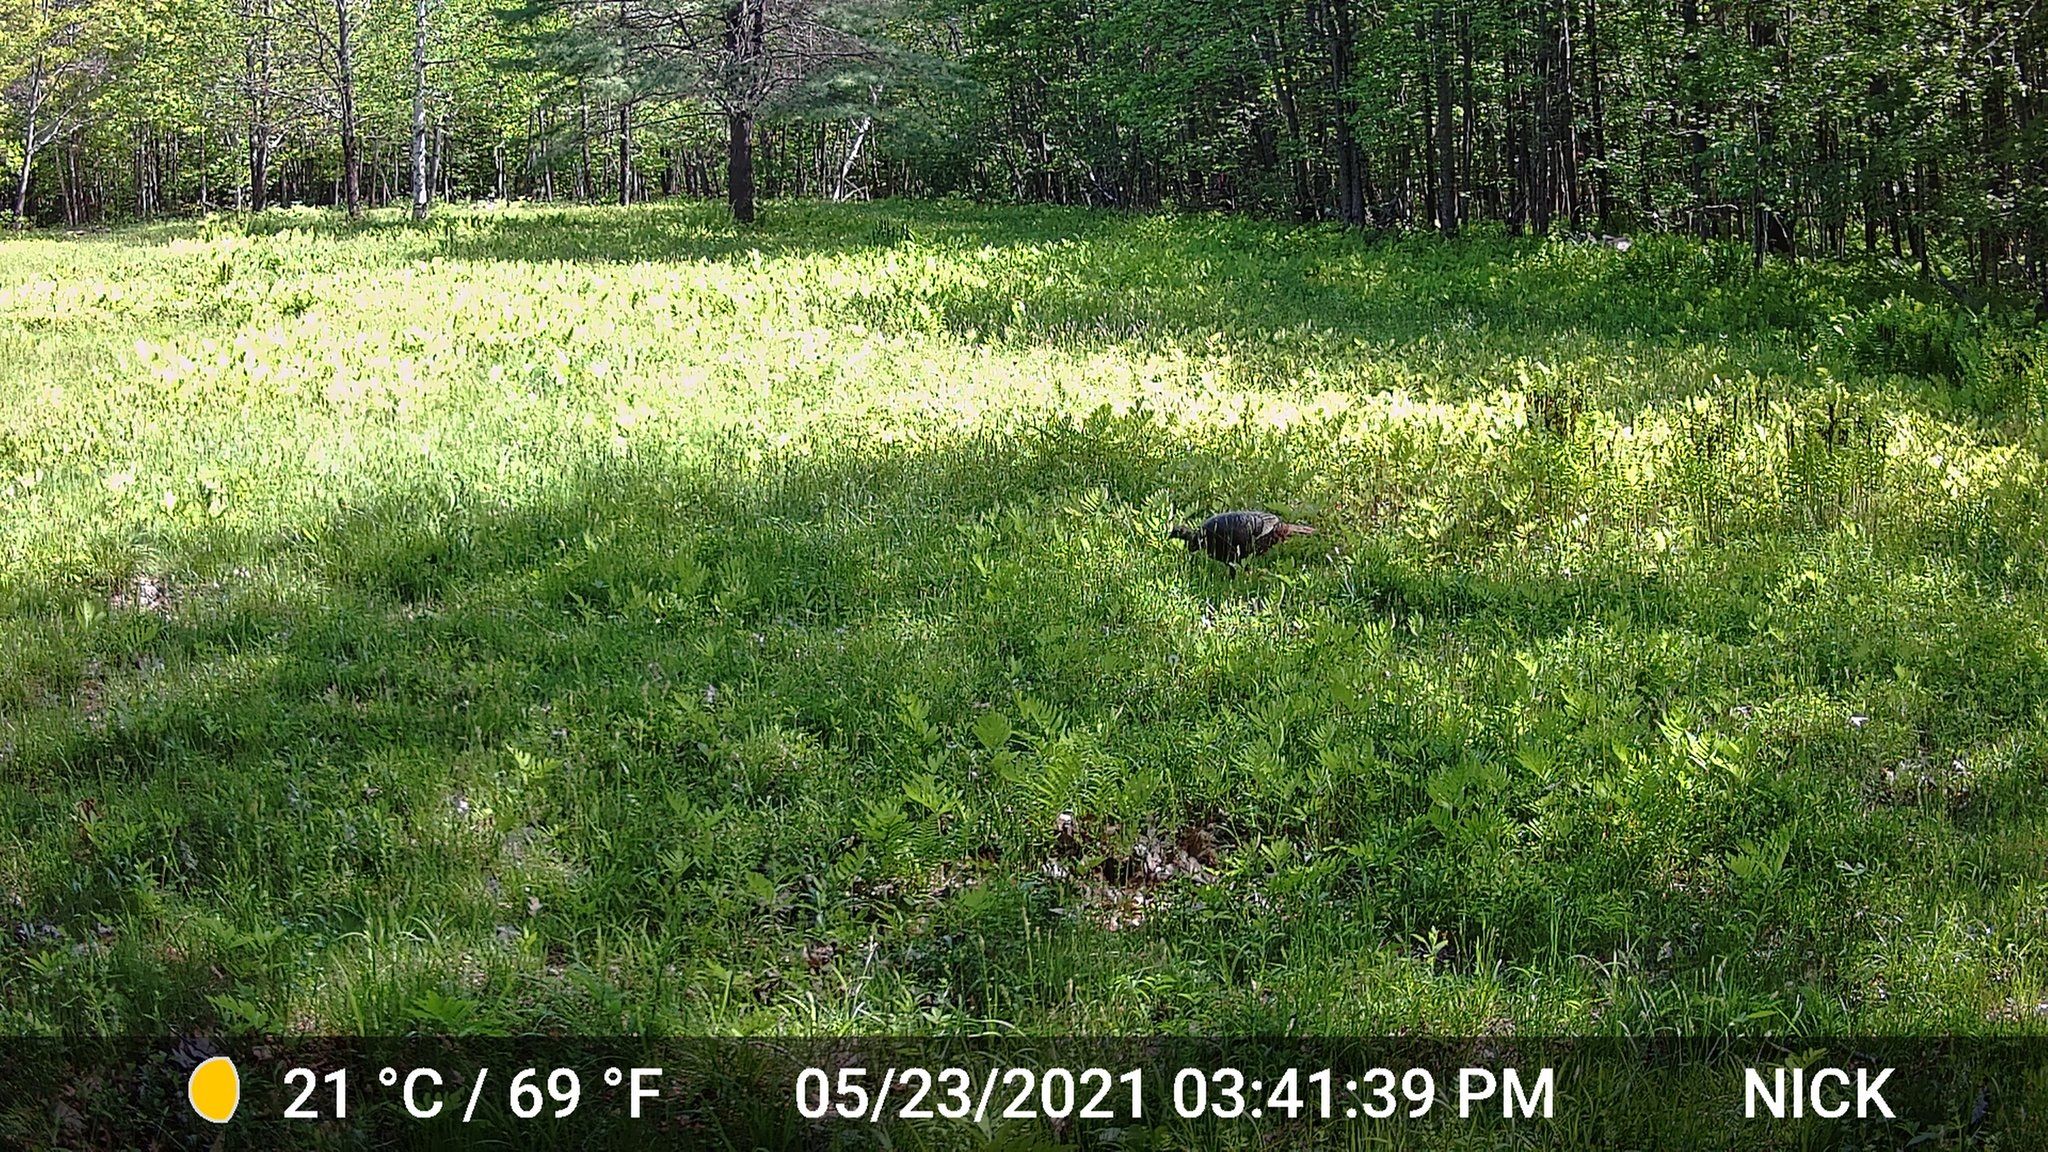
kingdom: Animalia
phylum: Chordata
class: Aves
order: Galliformes
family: Phasianidae
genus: Meleagris
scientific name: Meleagris gallopavo
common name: Wild turkey
